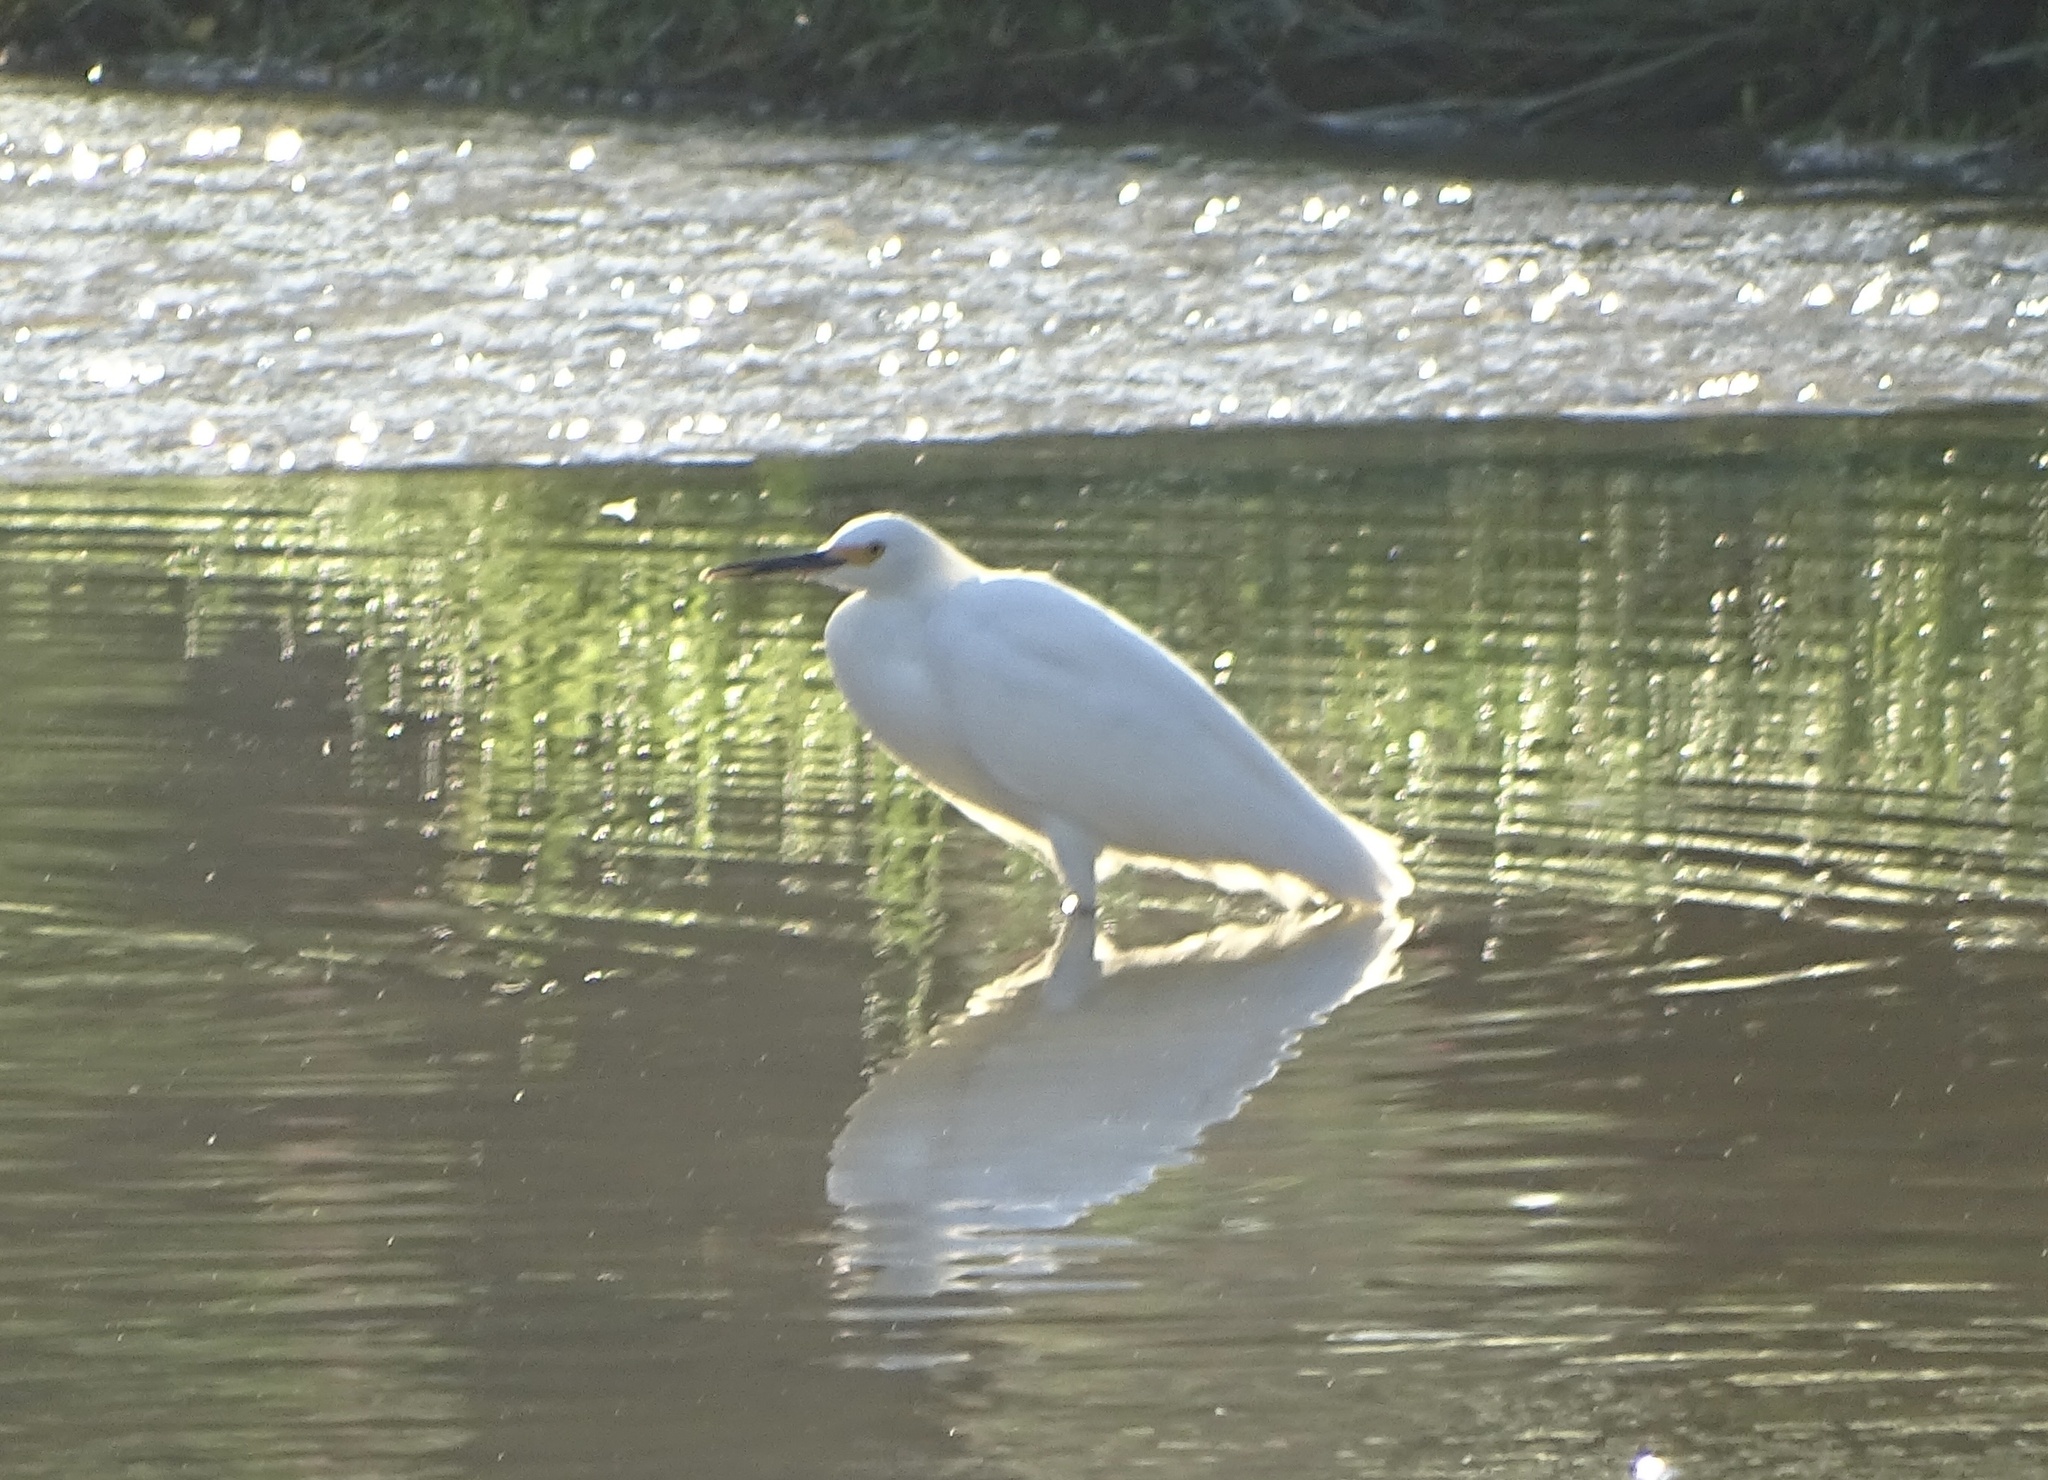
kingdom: Animalia
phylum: Chordata
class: Aves
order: Pelecaniformes
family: Ardeidae
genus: Egretta
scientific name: Egretta thula
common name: Snowy egret
